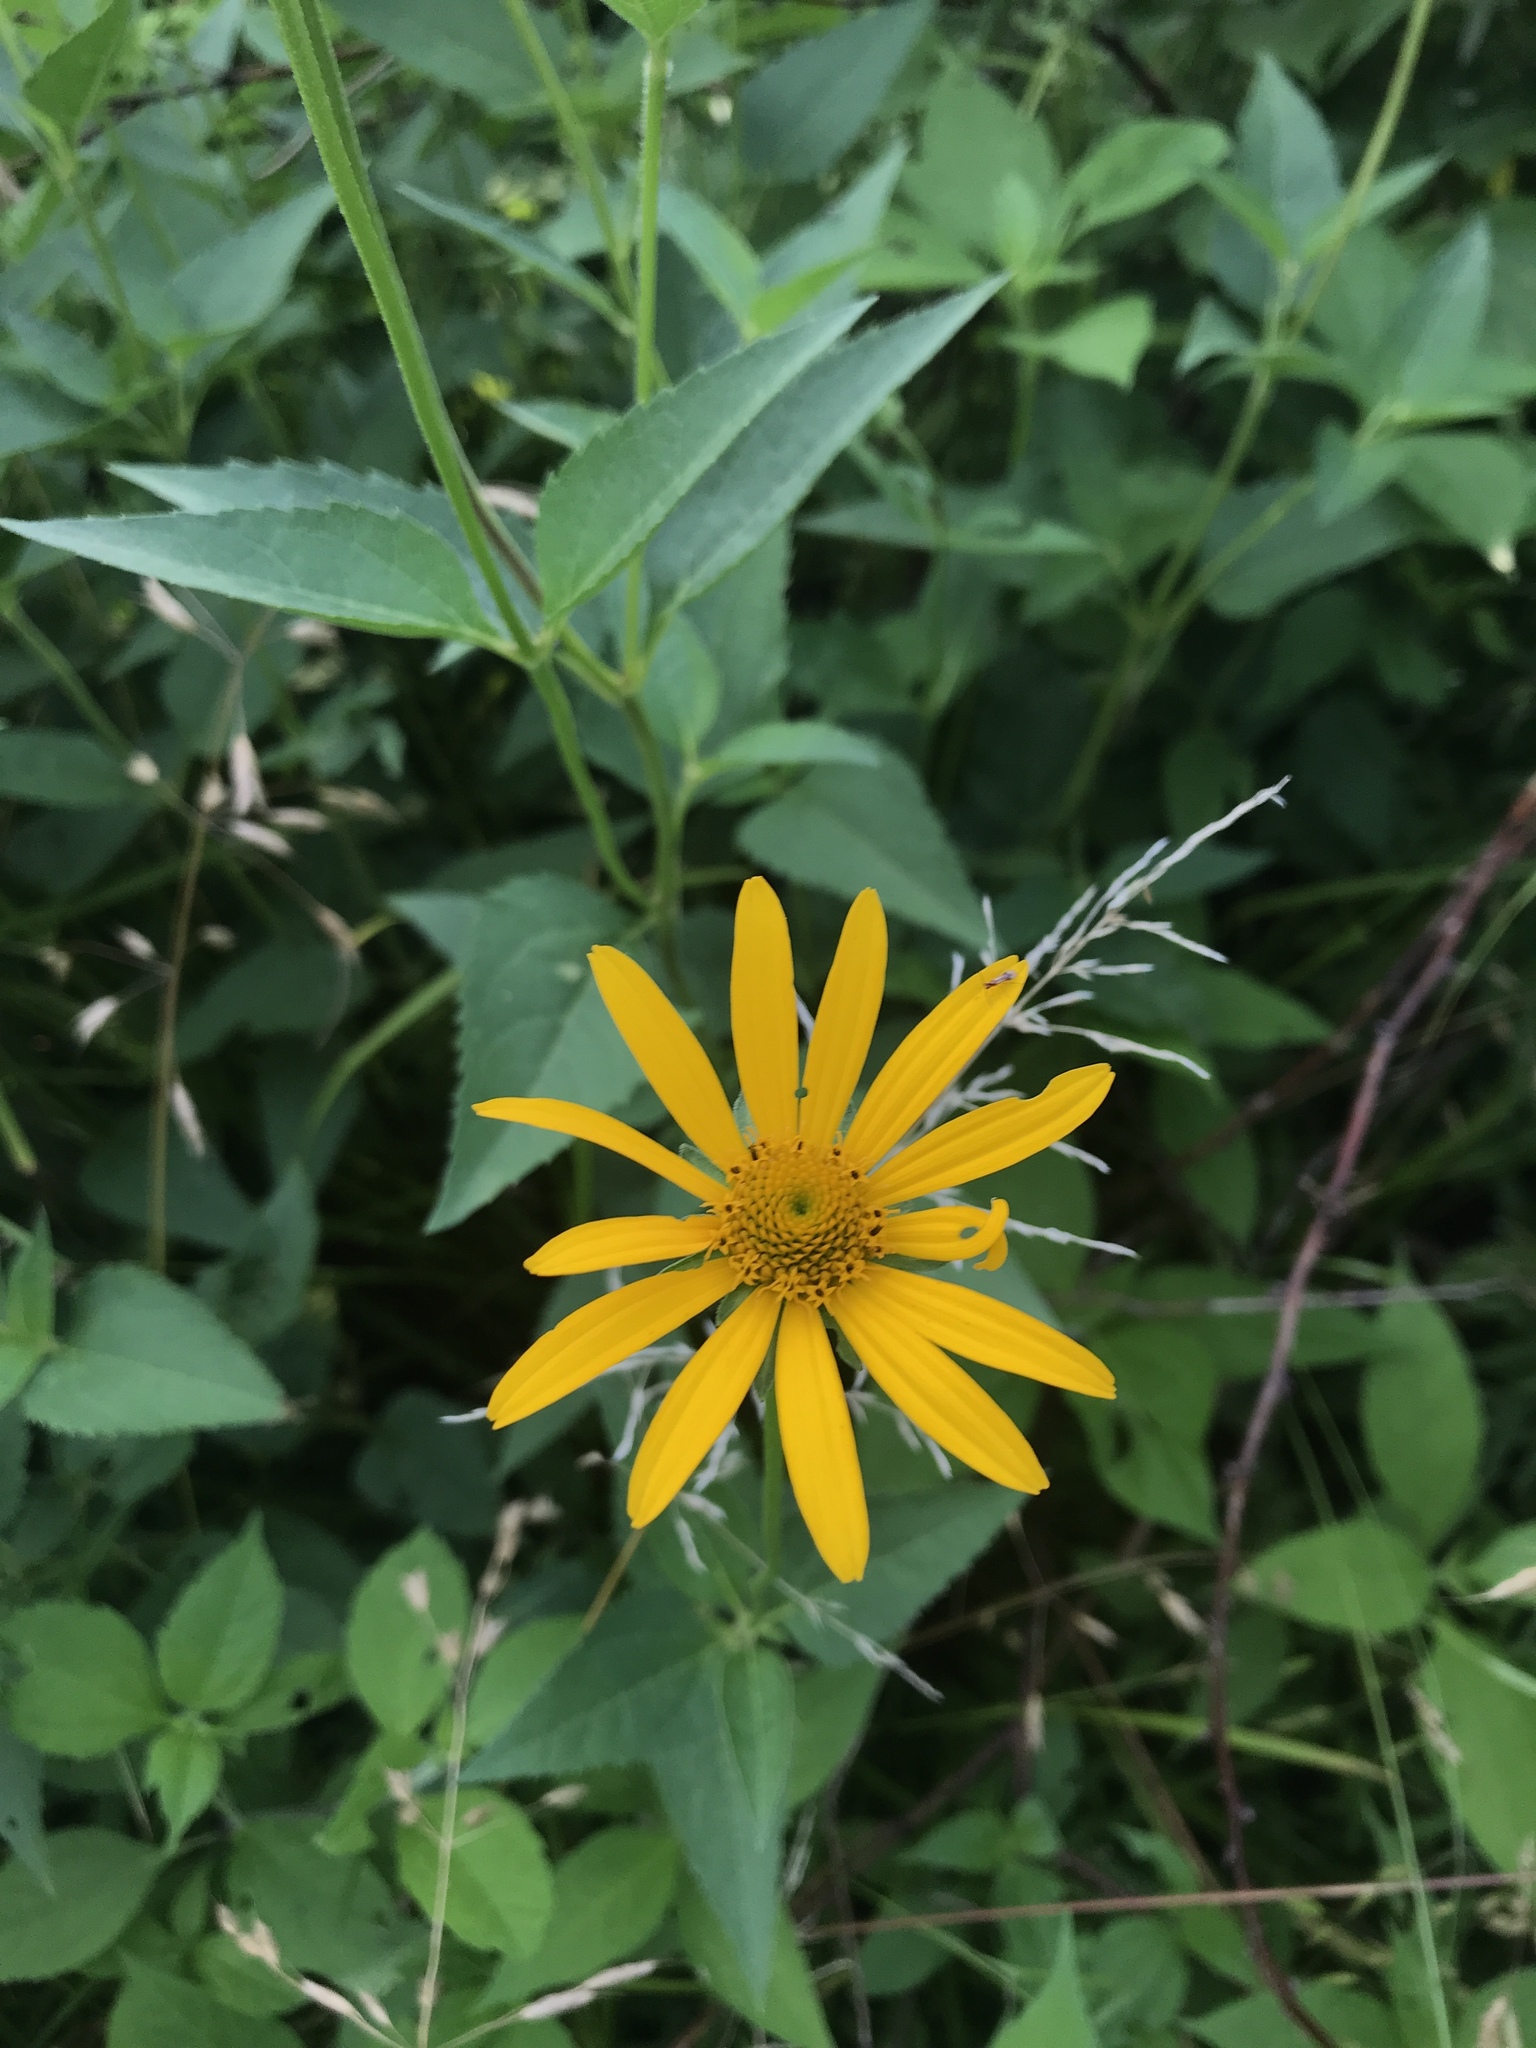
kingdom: Plantae
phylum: Tracheophyta
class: Magnoliopsida
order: Asterales
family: Asteraceae
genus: Heliopsis
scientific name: Heliopsis helianthoides
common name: False sunflower
